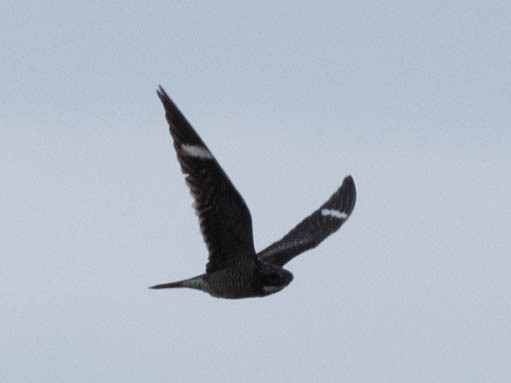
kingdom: Animalia
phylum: Chordata
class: Aves
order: Caprimulgiformes
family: Caprimulgidae
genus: Chordeiles
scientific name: Chordeiles minor
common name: Common nighthawk
